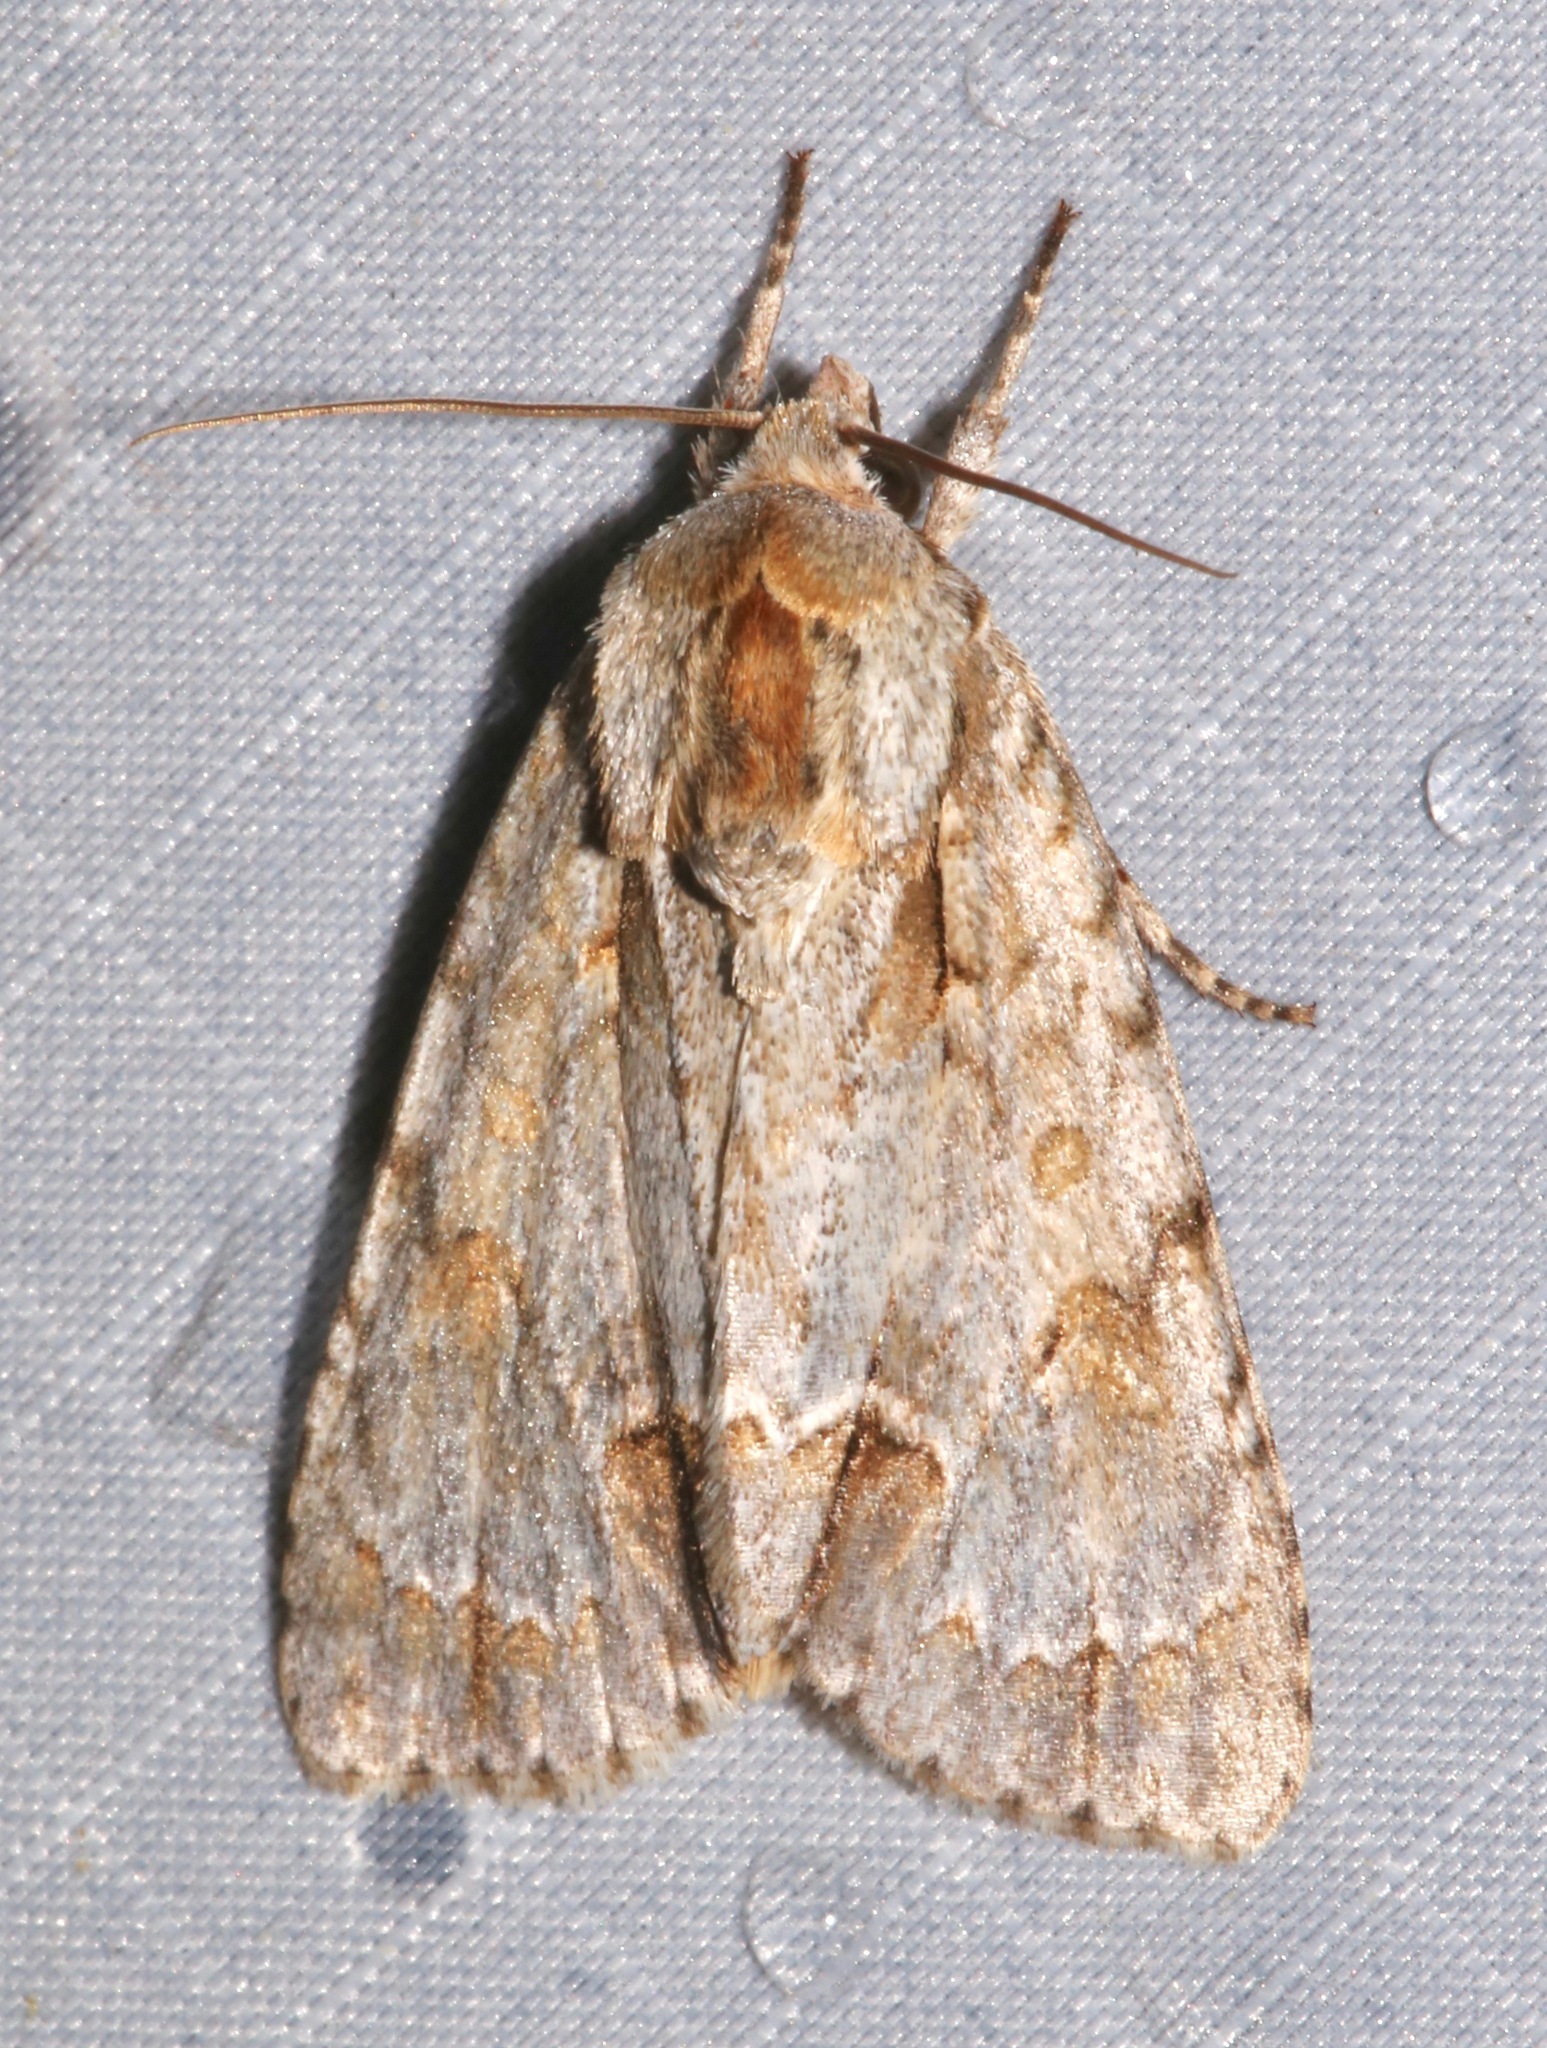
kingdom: Animalia
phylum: Arthropoda
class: Insecta
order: Lepidoptera
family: Noctuidae
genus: Acronicta
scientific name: Acronicta morula
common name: Ochre dagger
